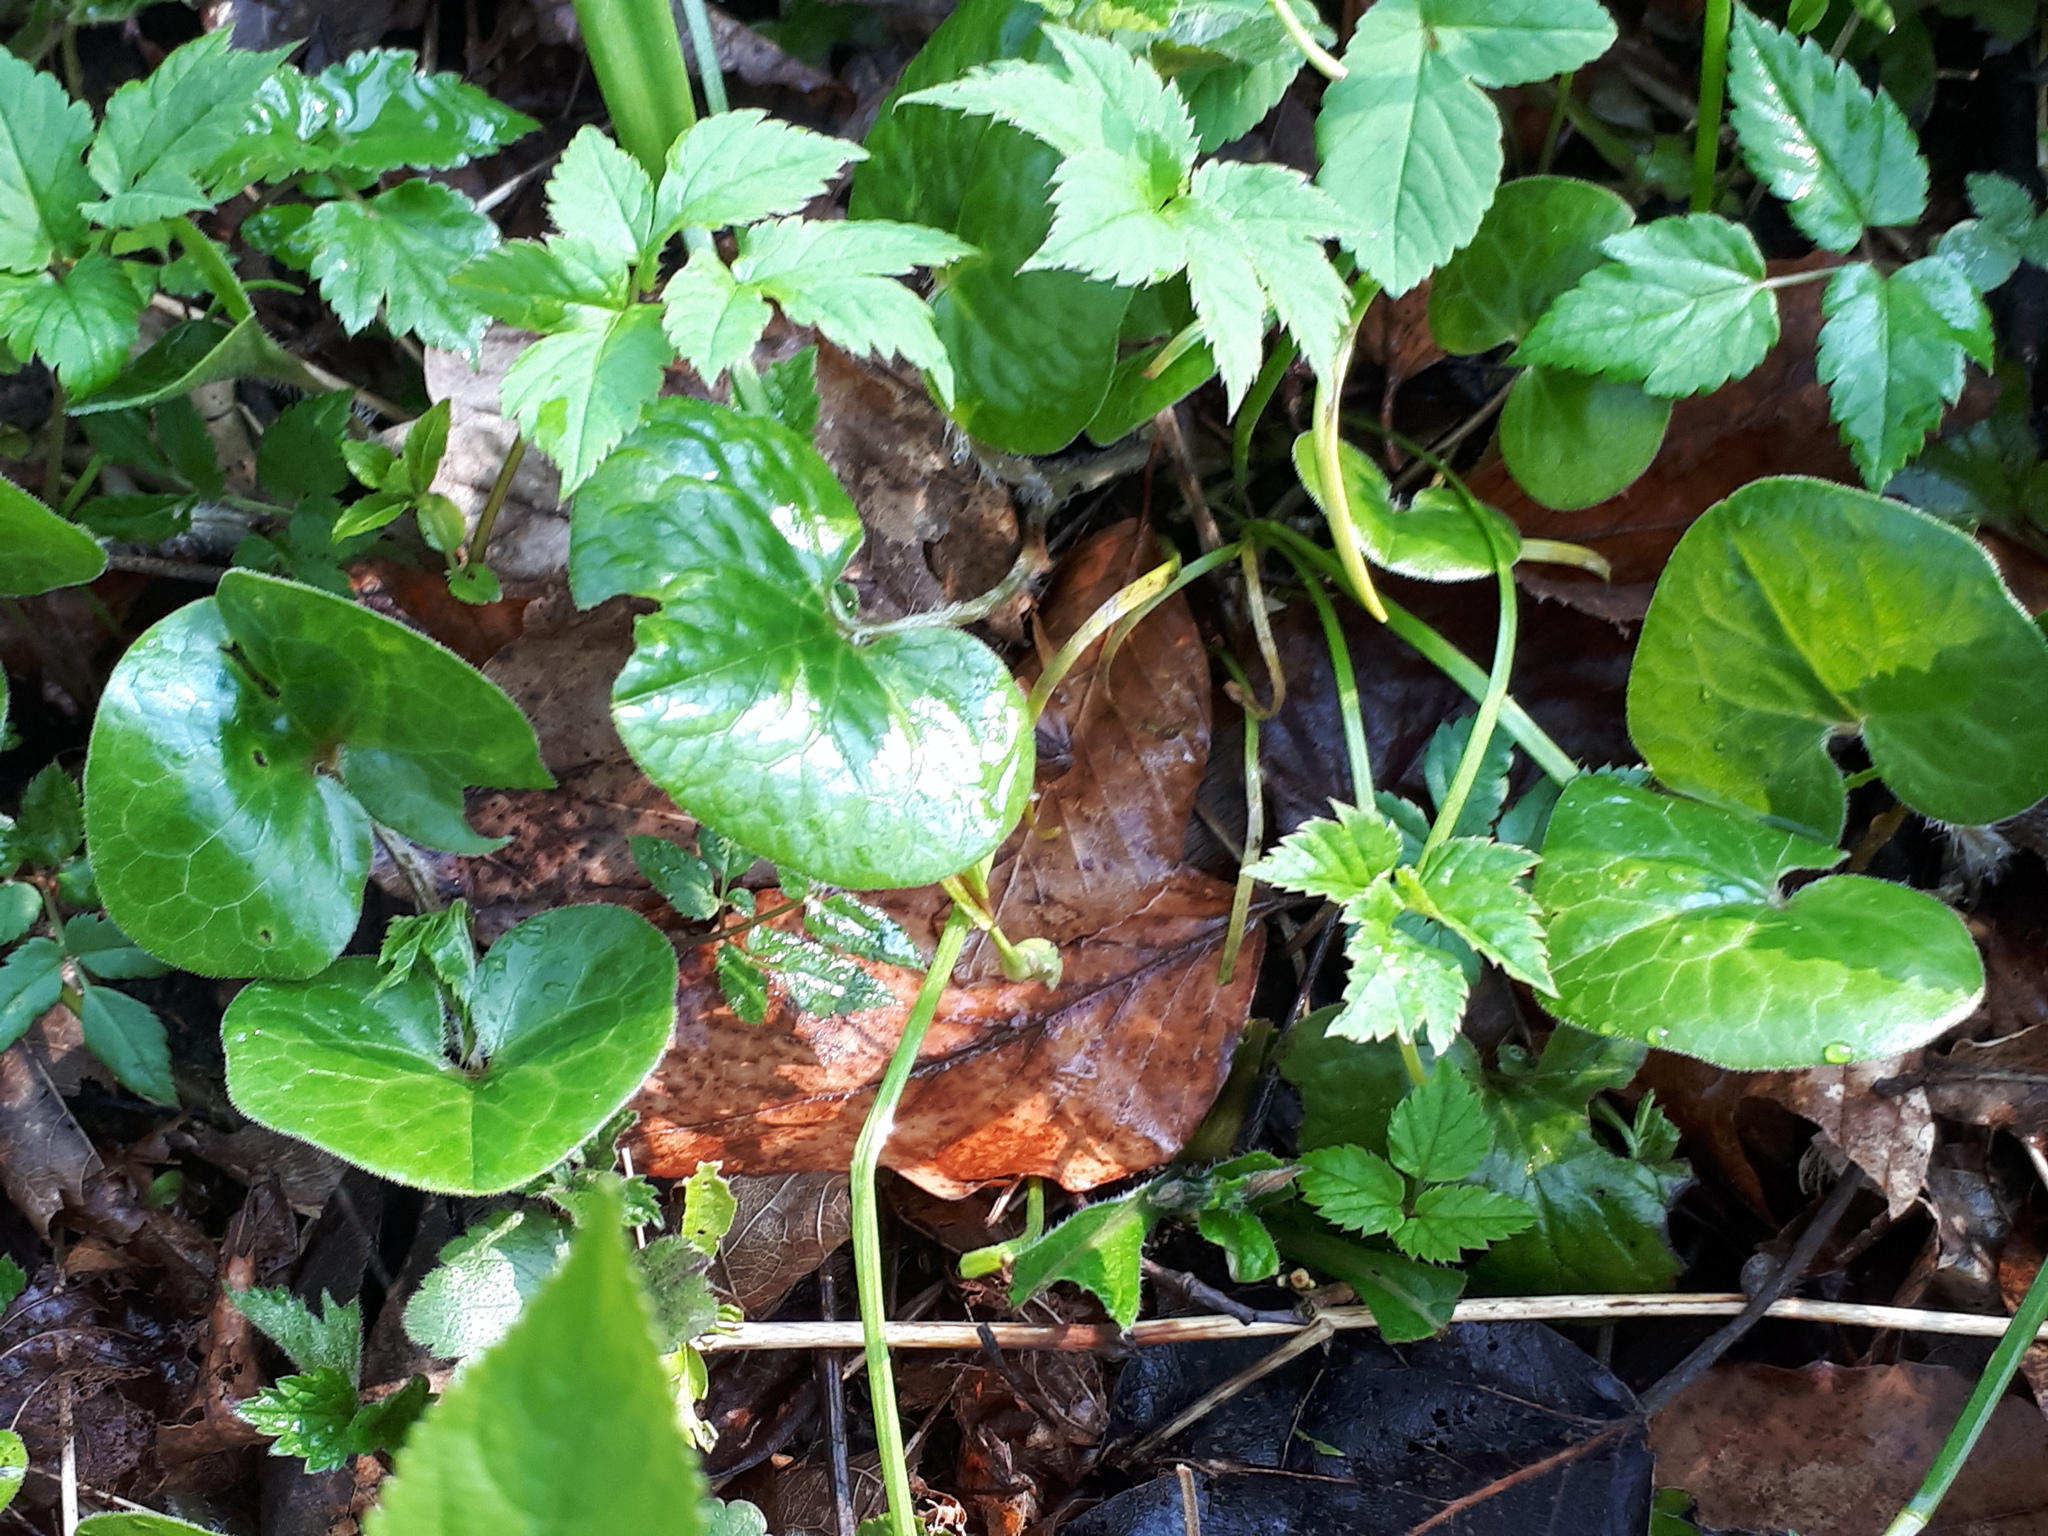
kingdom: Plantae
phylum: Tracheophyta
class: Magnoliopsida
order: Piperales
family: Aristolochiaceae
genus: Asarum
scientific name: Asarum europaeum
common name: Asarabacca
